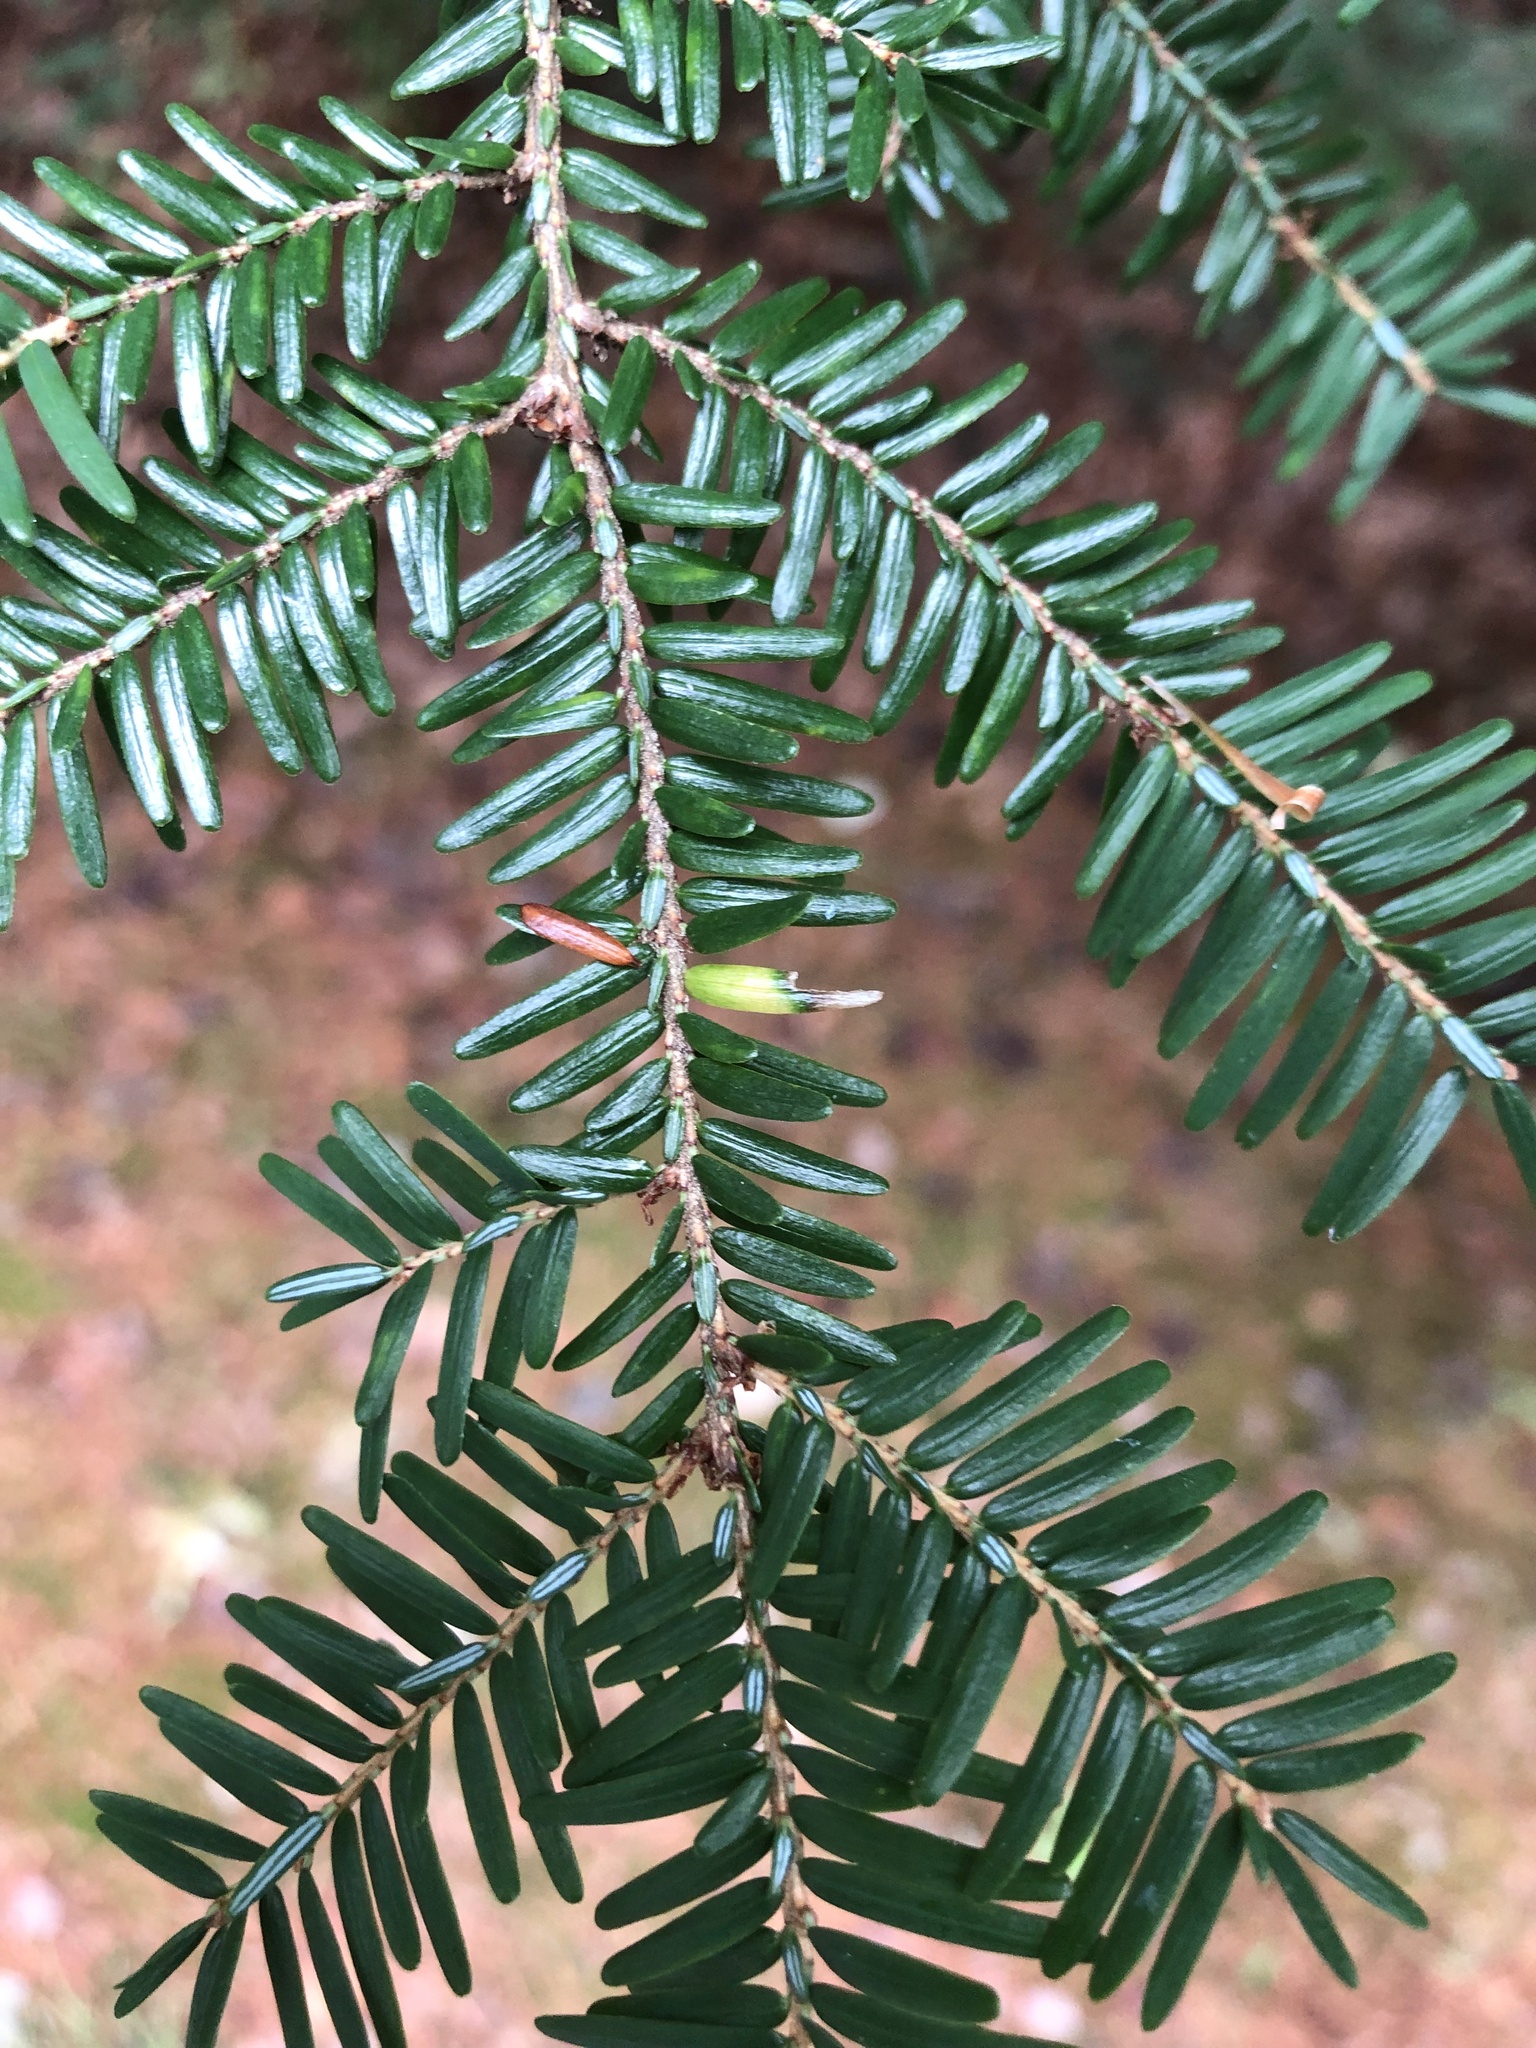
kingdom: Plantae
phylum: Tracheophyta
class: Pinopsida
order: Pinales
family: Pinaceae
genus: Tsuga
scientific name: Tsuga canadensis
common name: Eastern hemlock
